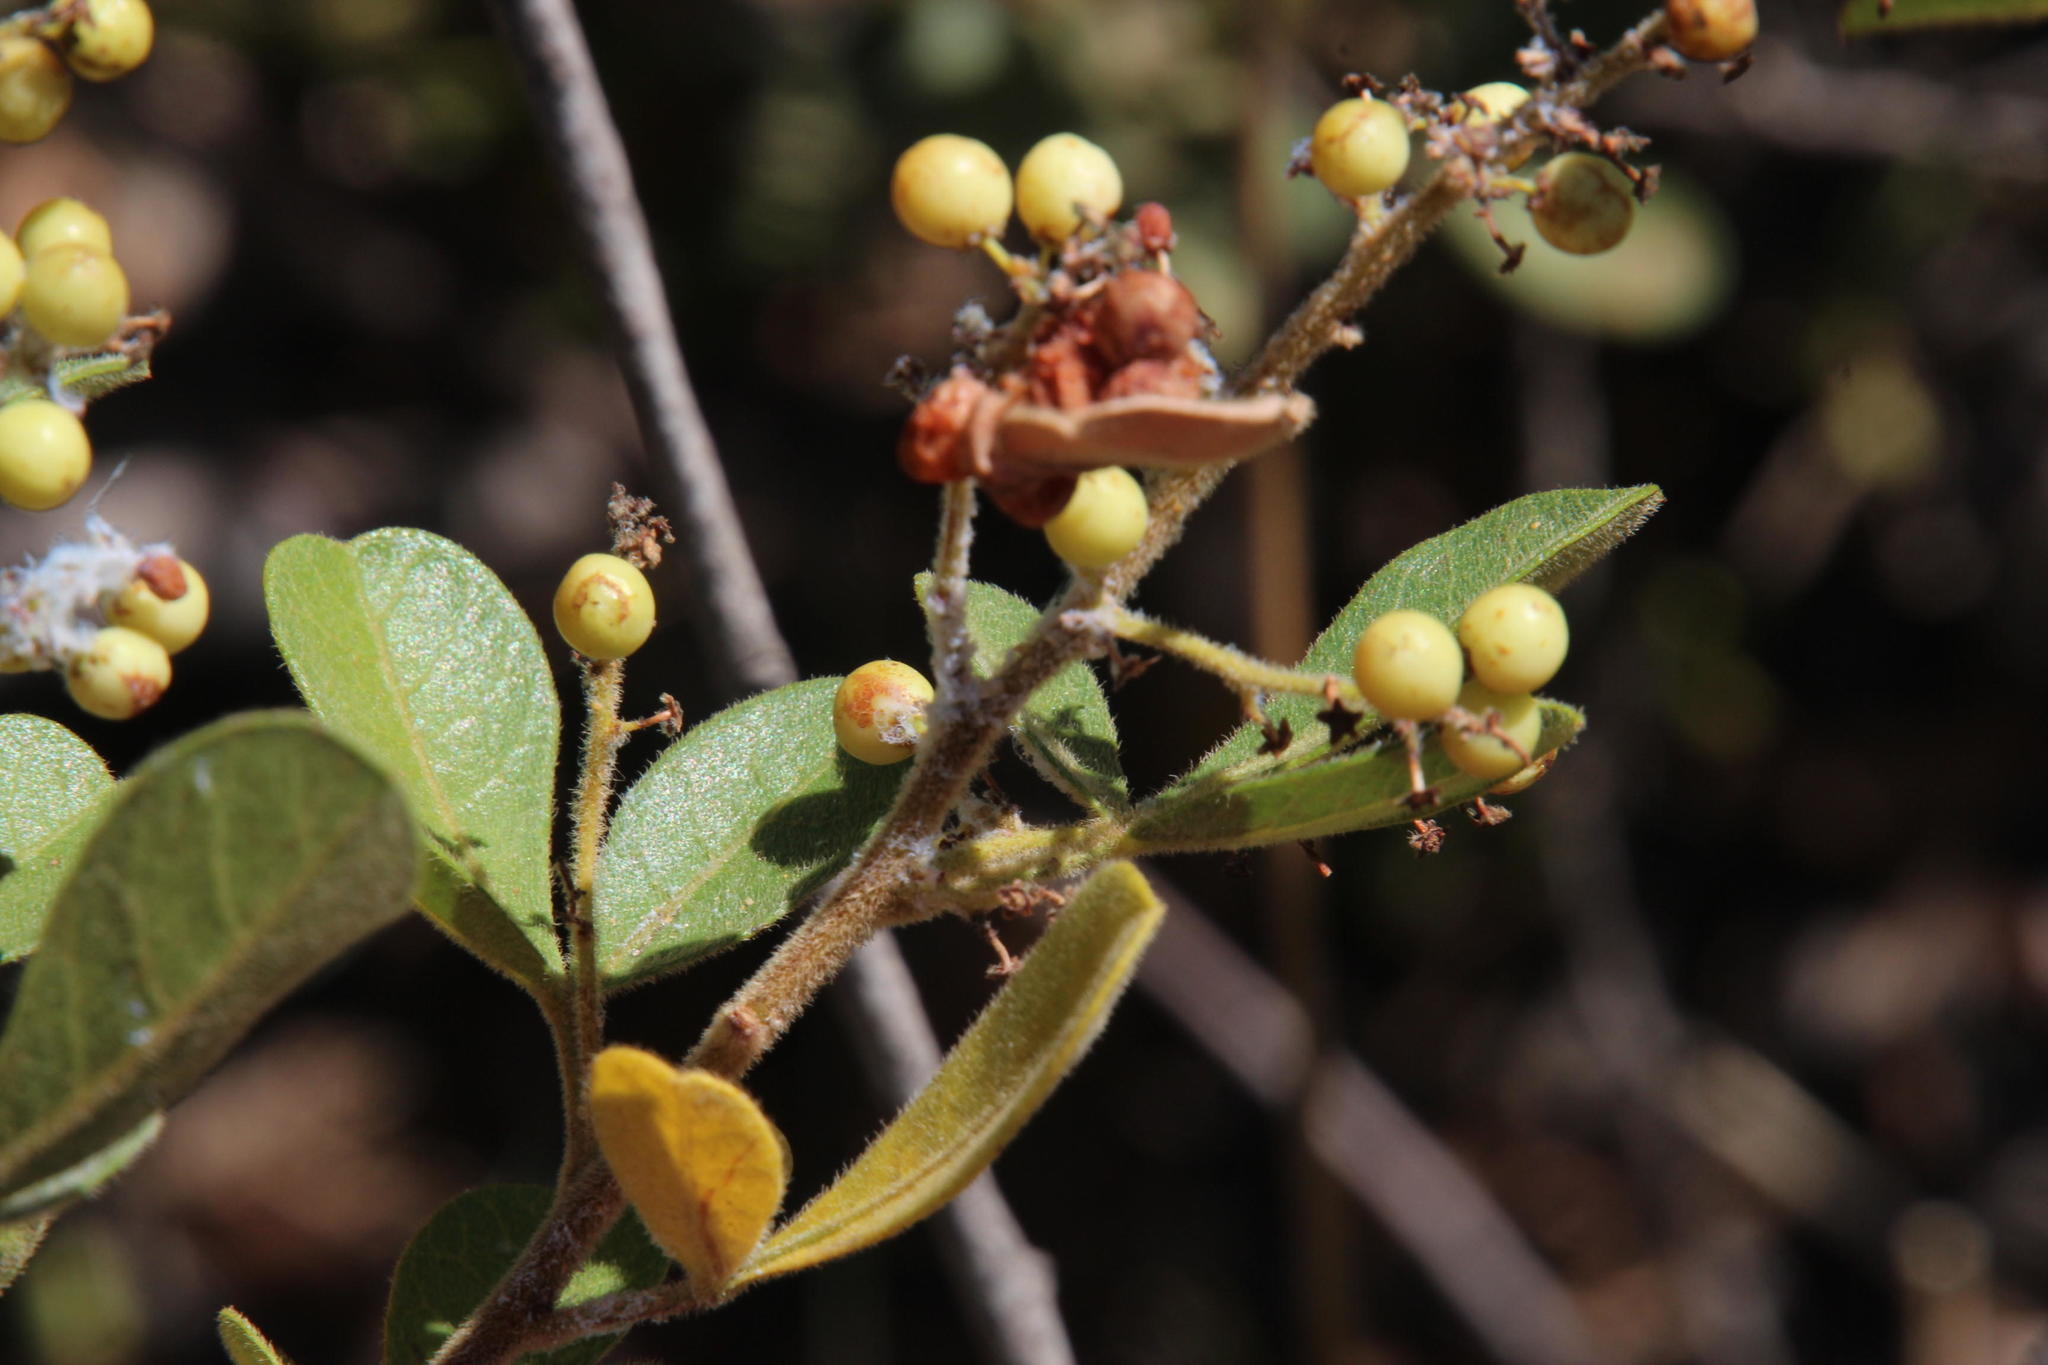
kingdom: Plantae
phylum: Tracheophyta
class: Magnoliopsida
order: Sapindales
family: Anacardiaceae
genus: Searsia
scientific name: Searsia laevigata
